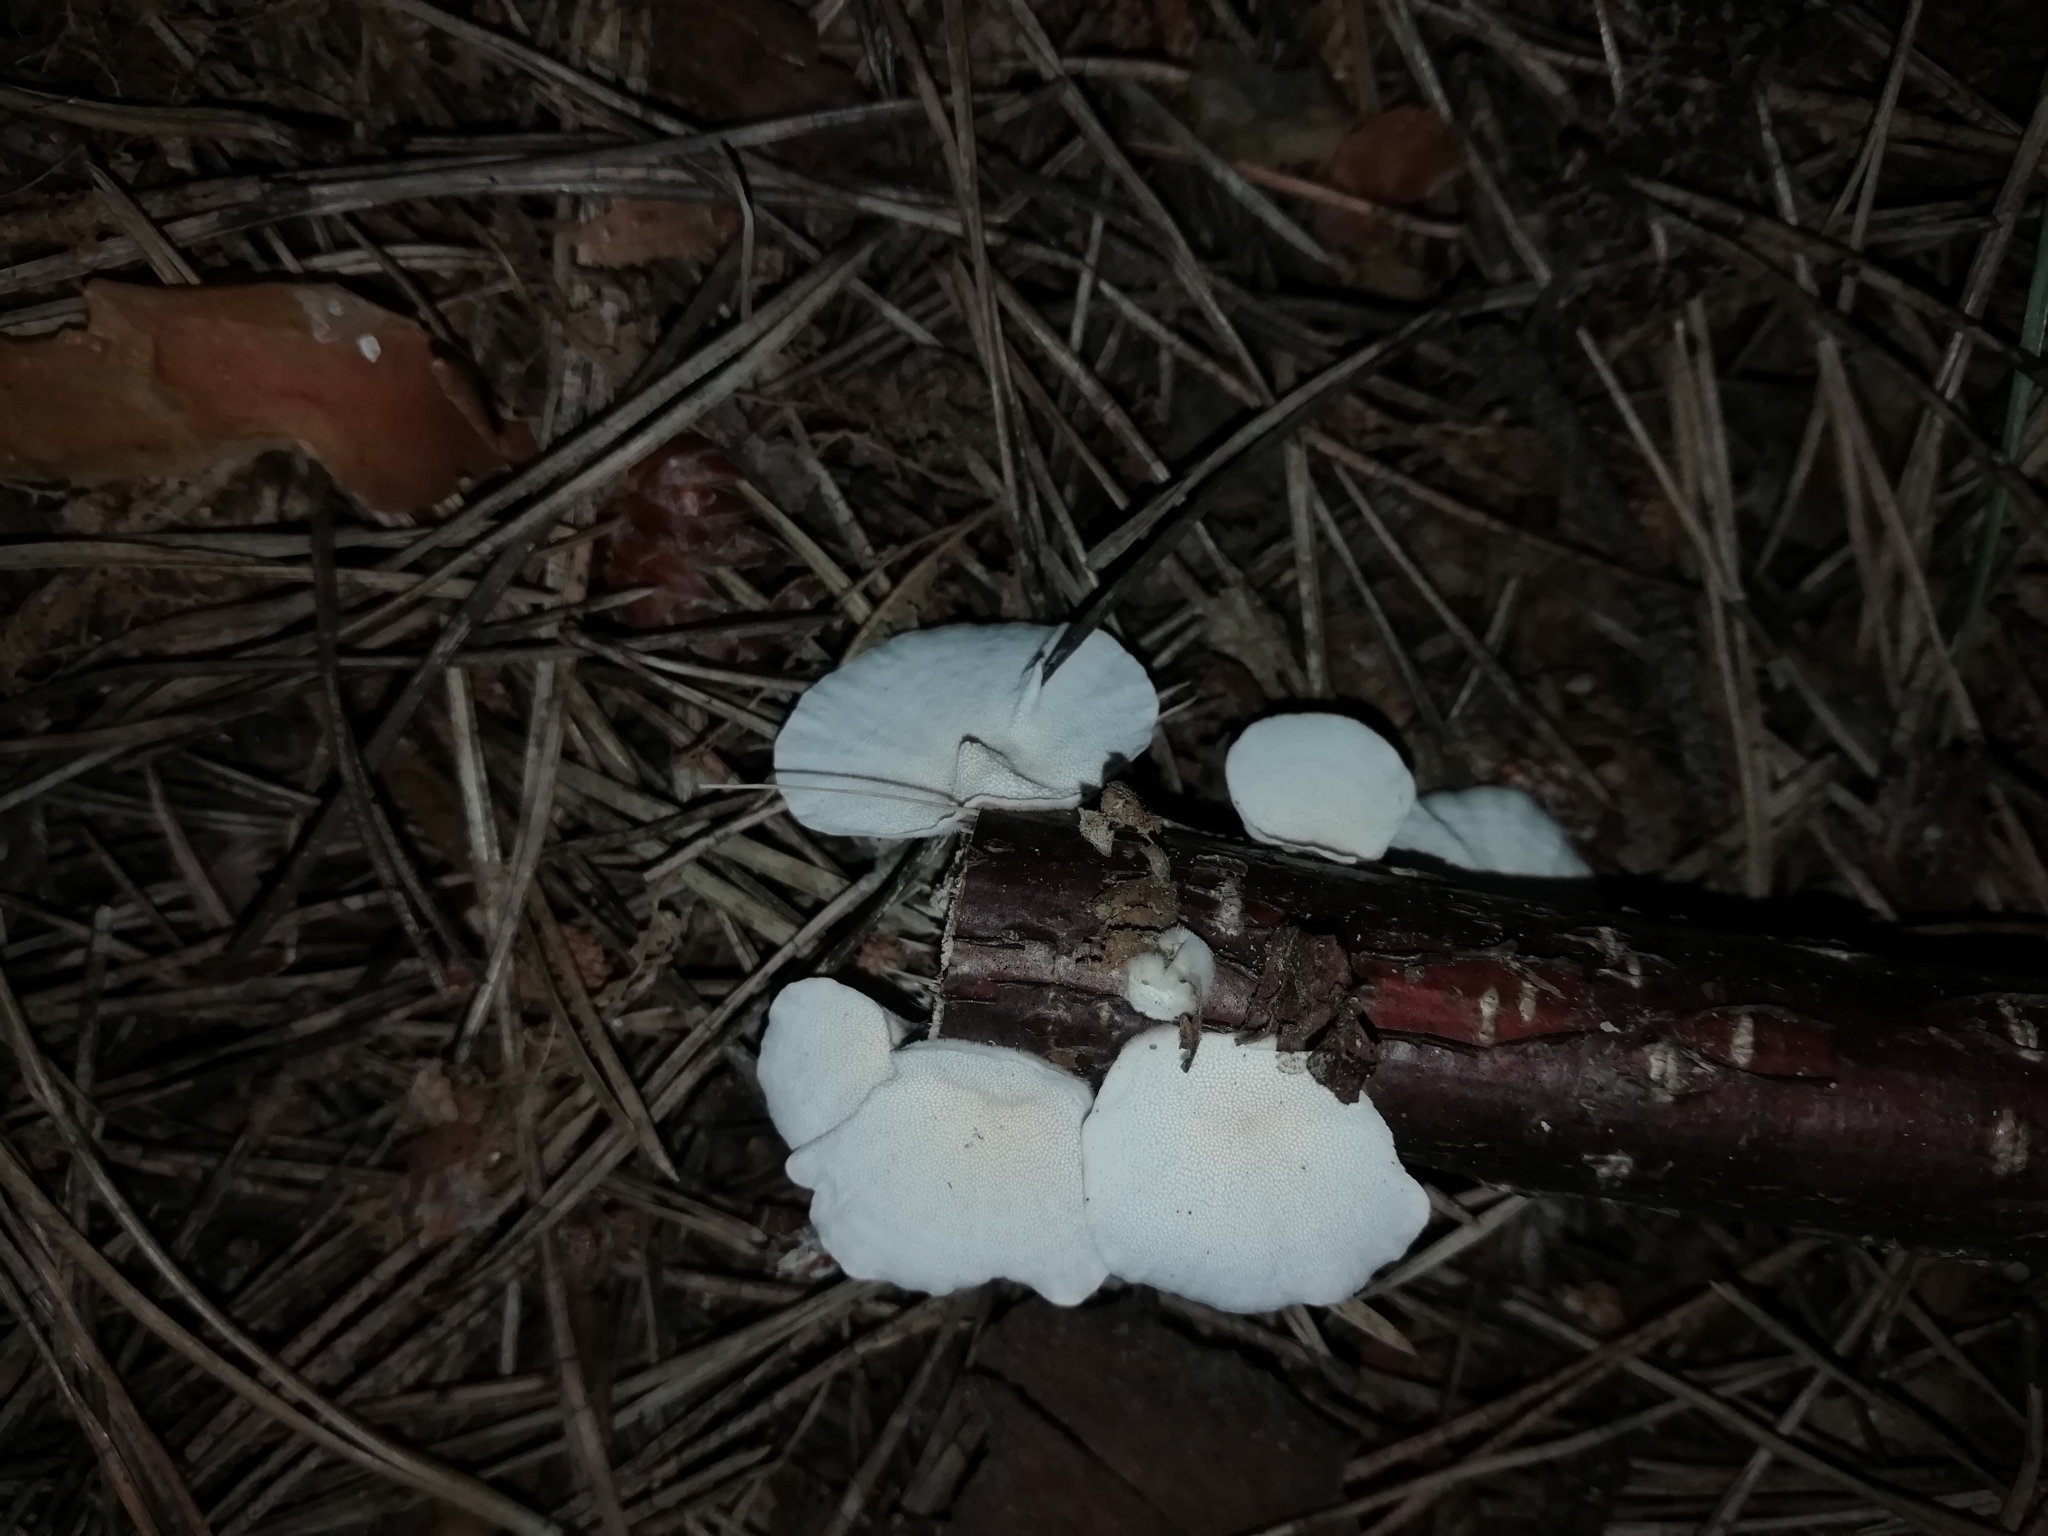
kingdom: Fungi
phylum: Basidiomycota
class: Agaricomycetes
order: Polyporales
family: Polyporaceae
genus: Trametes
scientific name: Trametes versicolor
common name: Turkeytail
